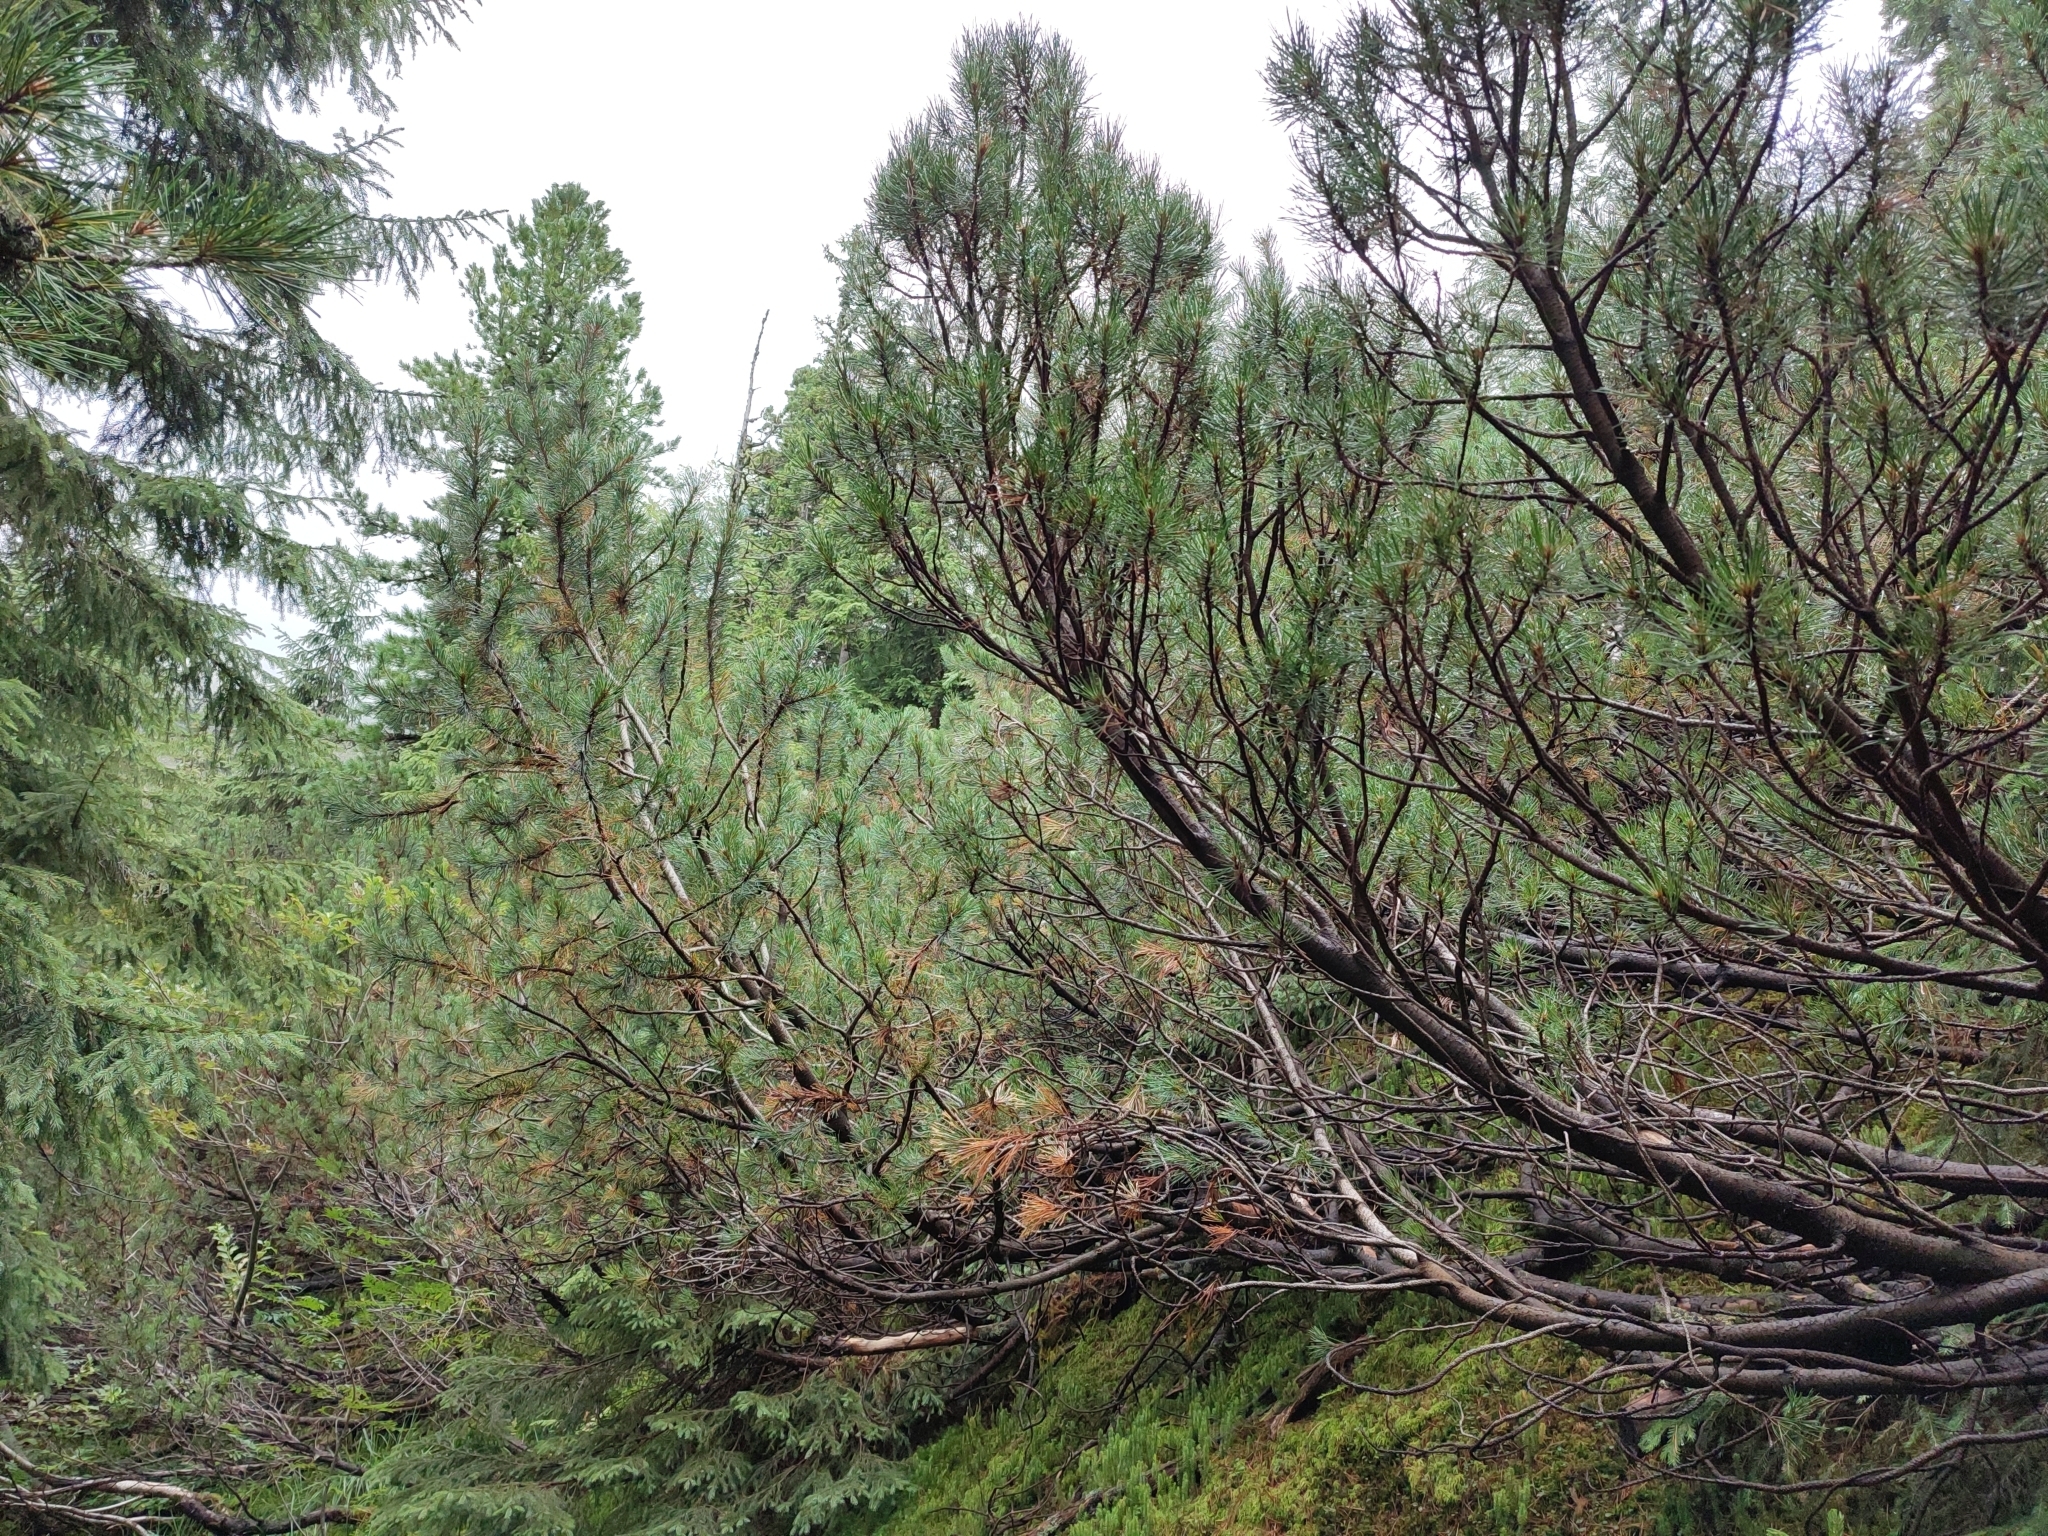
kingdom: Plantae
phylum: Tracheophyta
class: Pinopsida
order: Pinales
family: Pinaceae
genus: Pinus
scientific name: Pinus mugo
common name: Mugo pine
